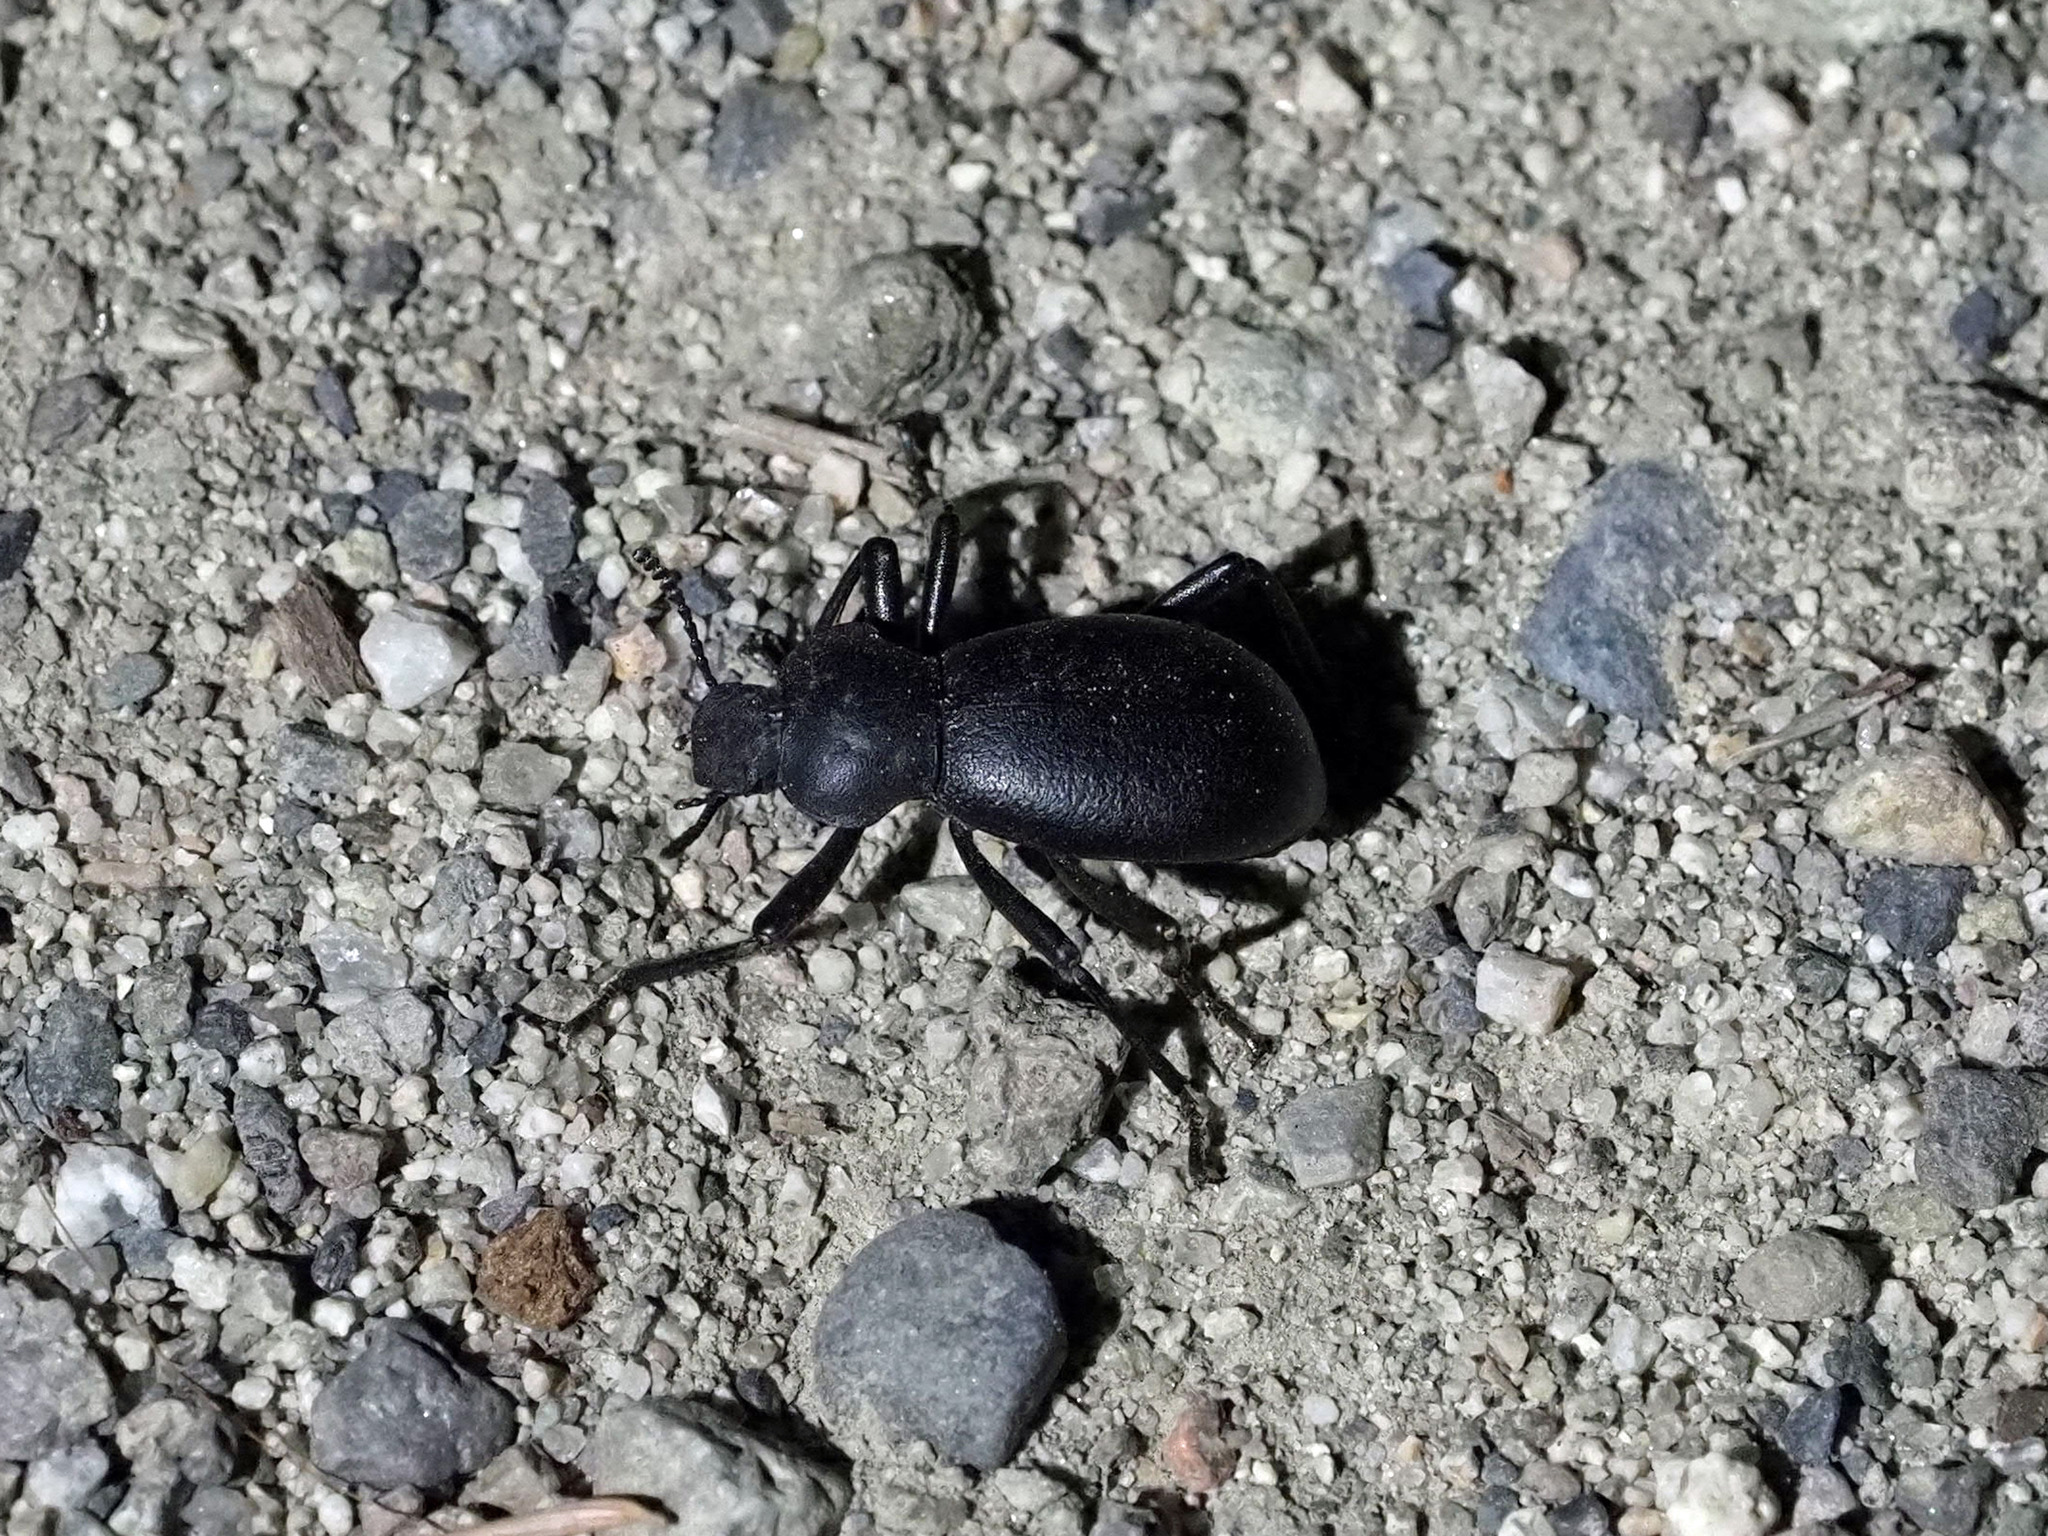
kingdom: Animalia
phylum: Arthropoda
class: Insecta
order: Coleoptera
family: Tenebrionidae
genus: Coelocnemis
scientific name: Coelocnemis dilaticollis
